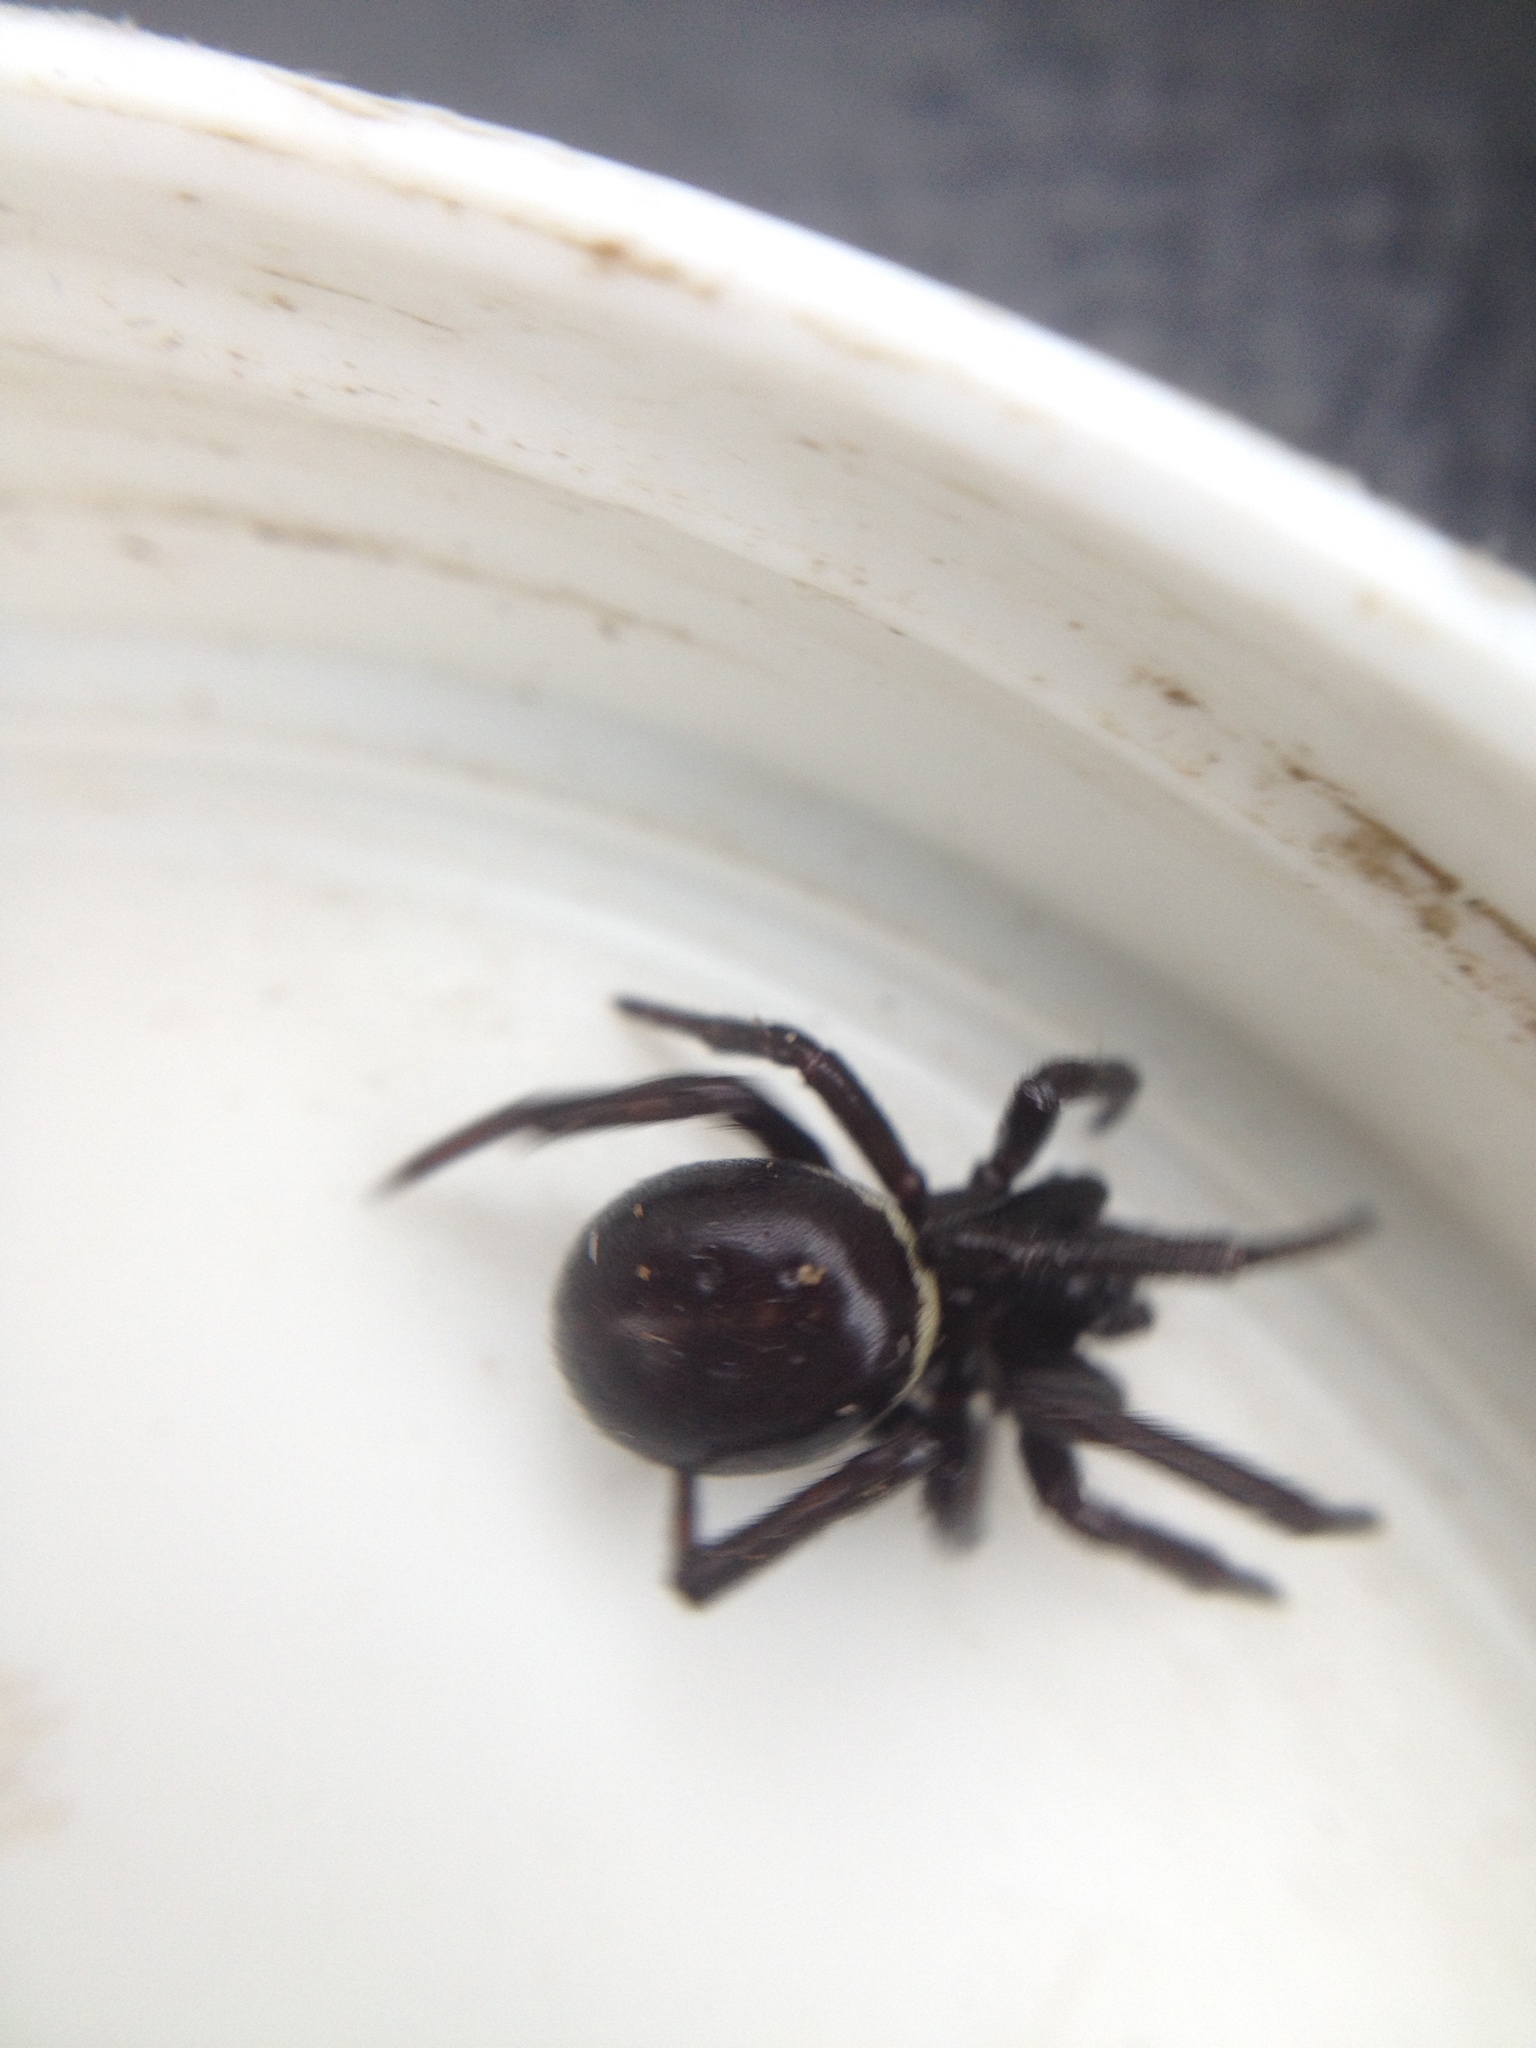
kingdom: Animalia
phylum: Arthropoda
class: Arachnida
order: Araneae
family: Theridiidae
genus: Steatoda
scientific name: Steatoda paykulliana
